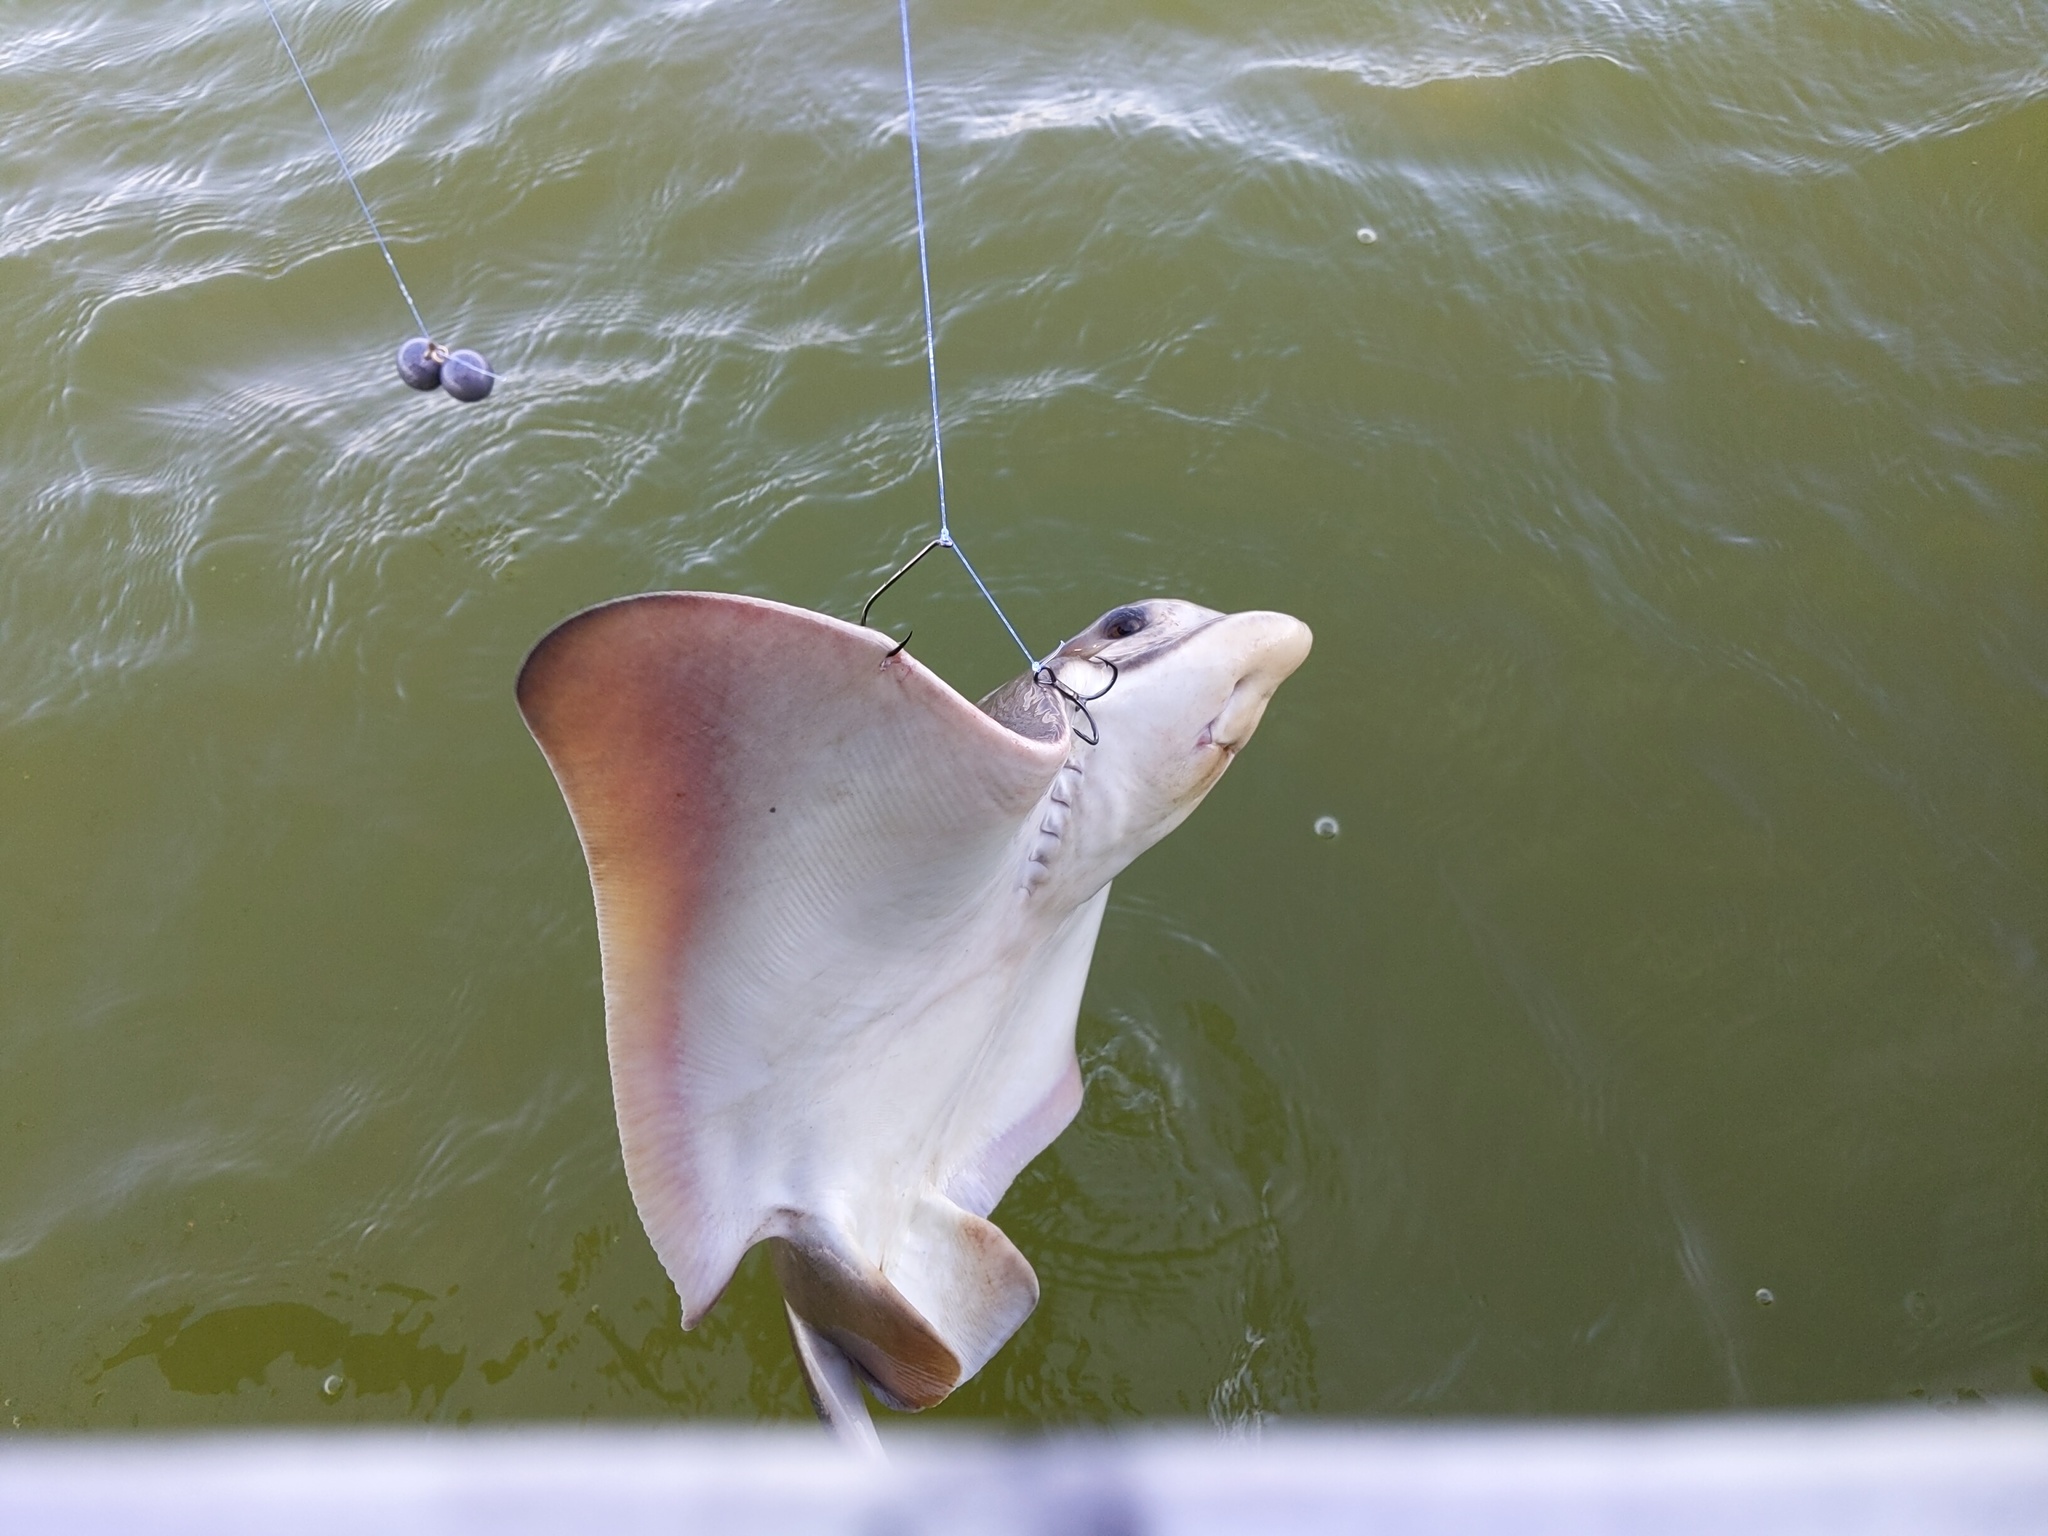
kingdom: Animalia
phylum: Chordata
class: Elasmobranchii
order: Myliobatiformes
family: Myliobatidae
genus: Myliobatis
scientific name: Myliobatis californica
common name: Bat ray
